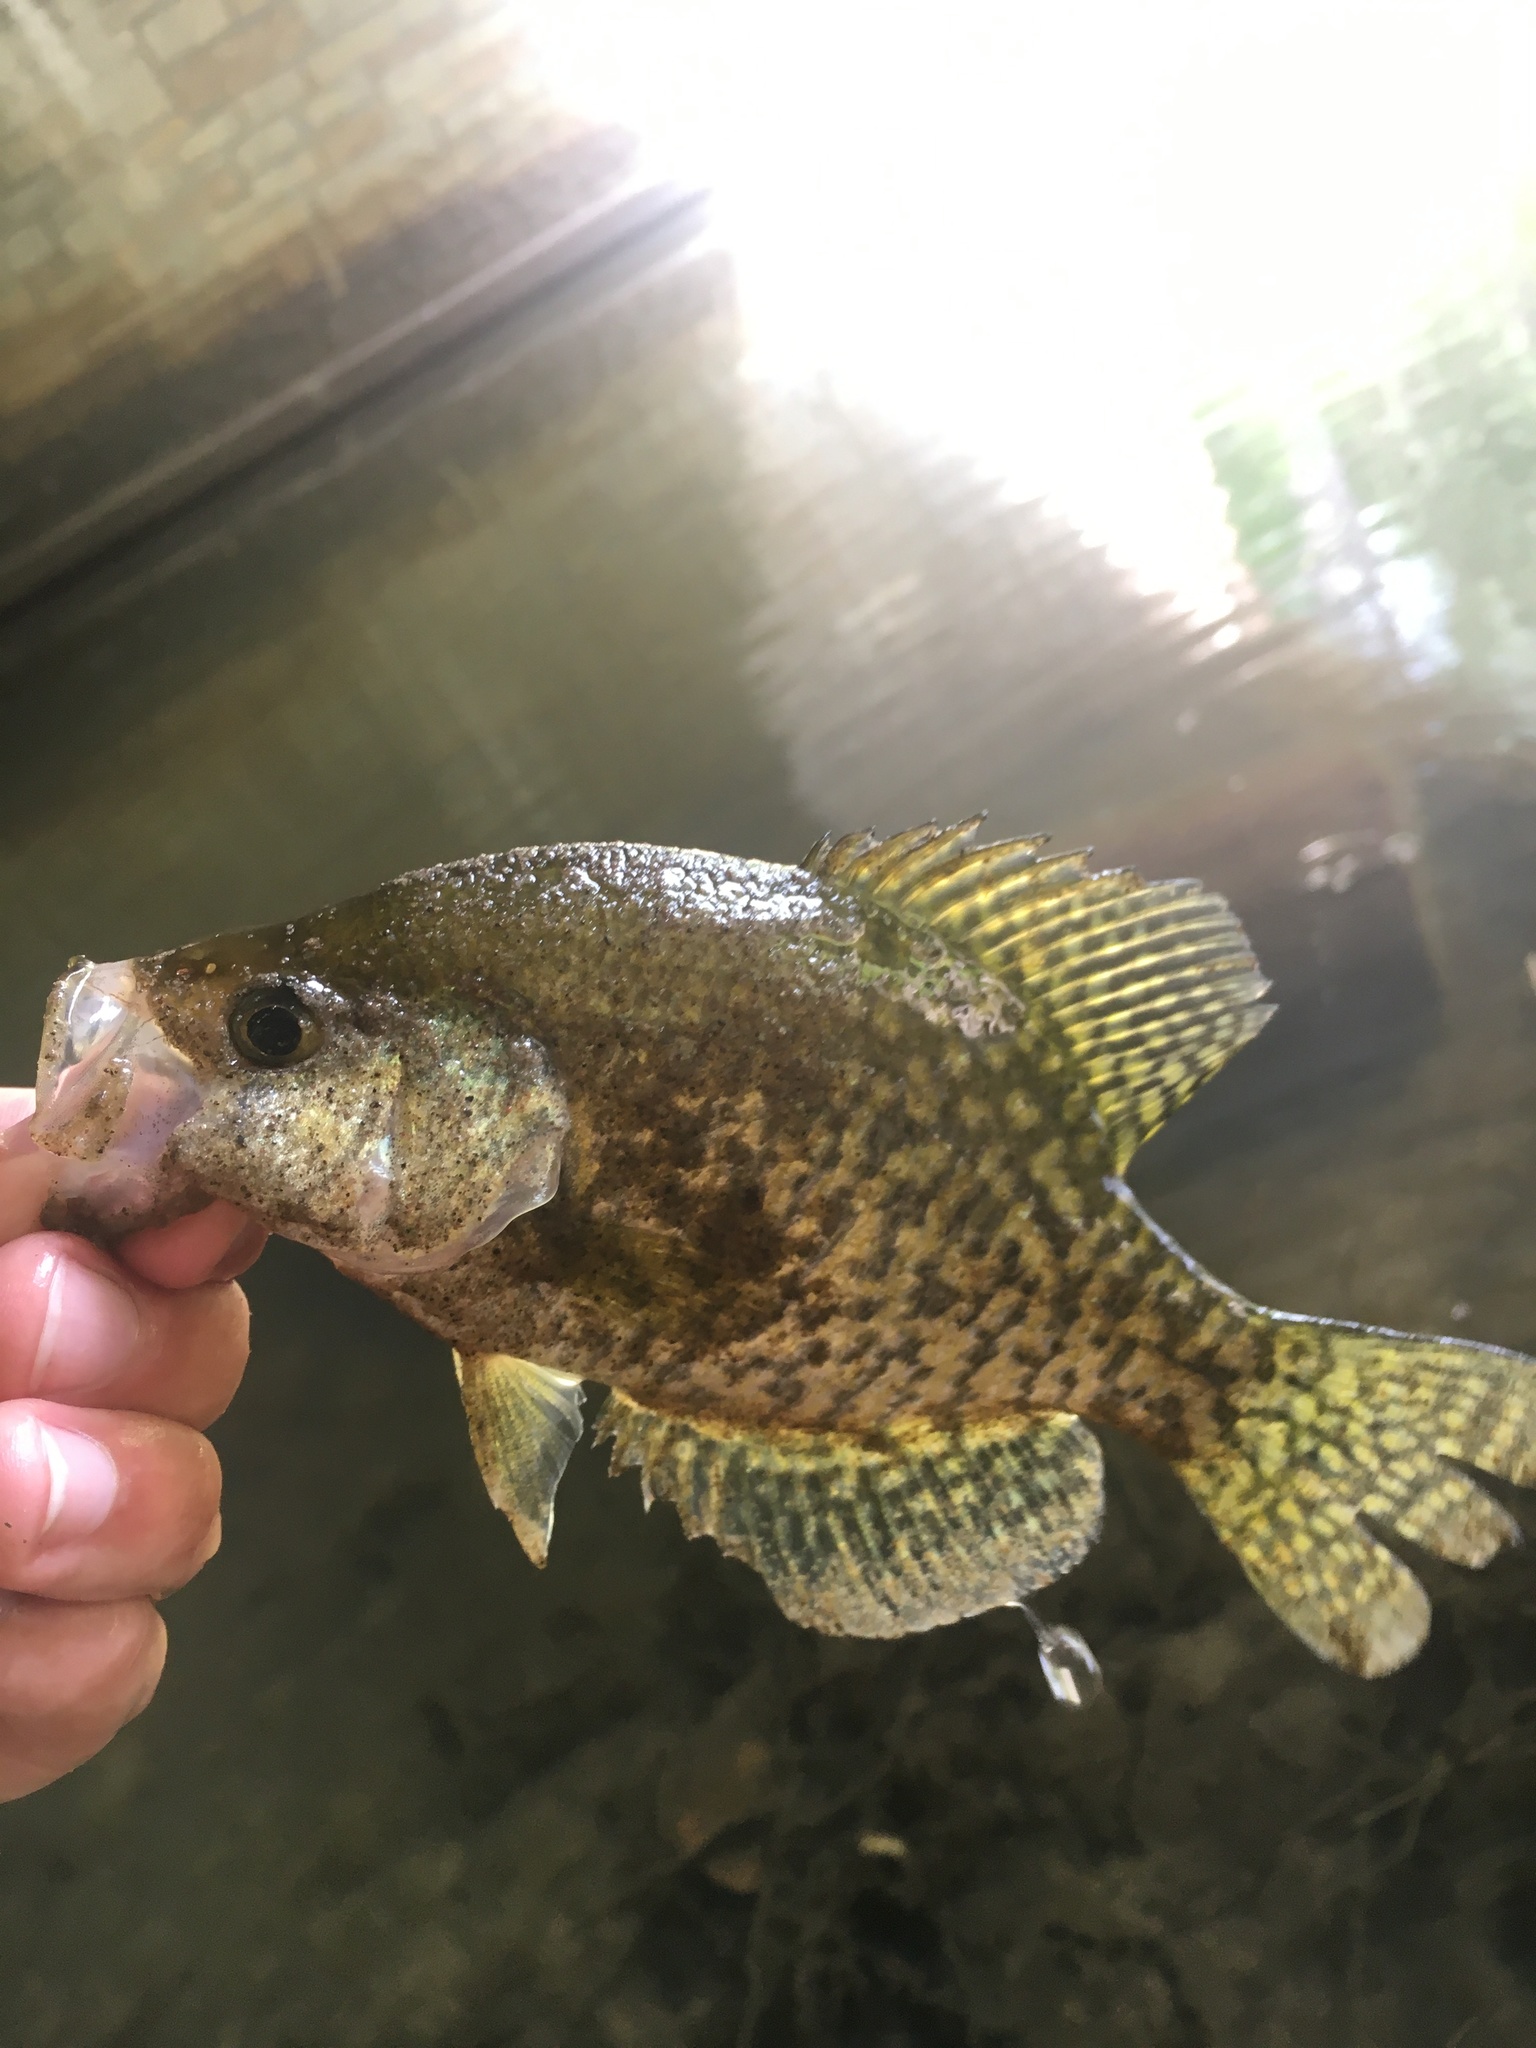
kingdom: Animalia
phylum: Chordata
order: Perciformes
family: Centrarchidae
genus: Pomoxis
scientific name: Pomoxis nigromaculatus
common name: Black crappie
